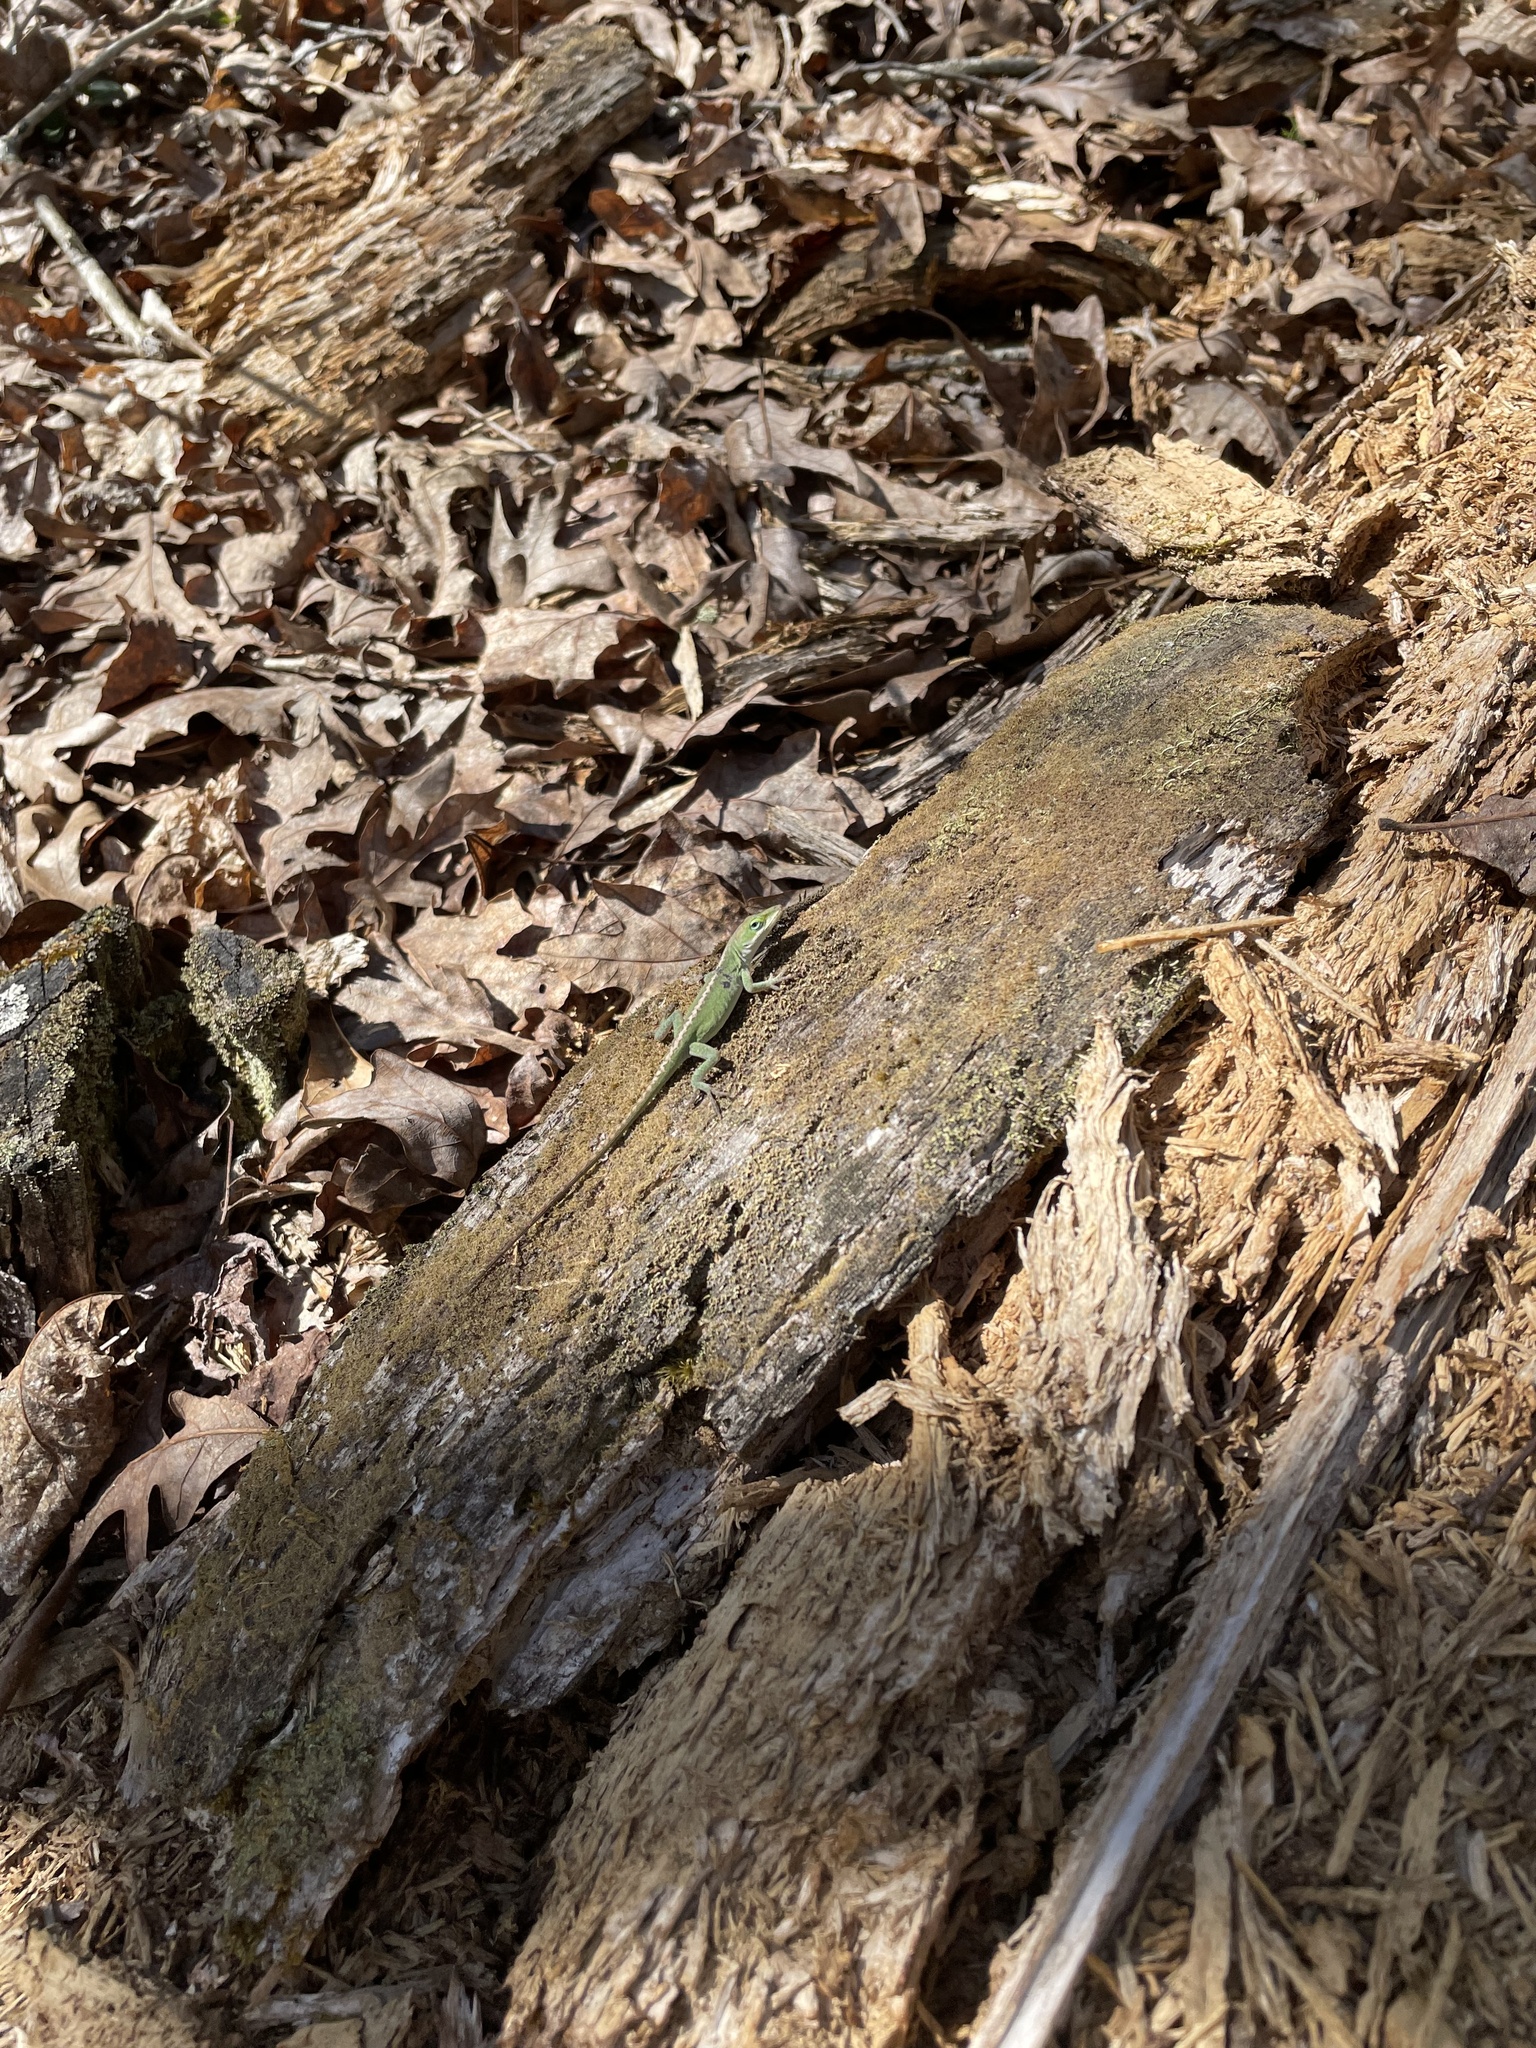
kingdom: Animalia
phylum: Chordata
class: Squamata
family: Dactyloidae
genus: Anolis
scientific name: Anolis carolinensis
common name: Green anole
